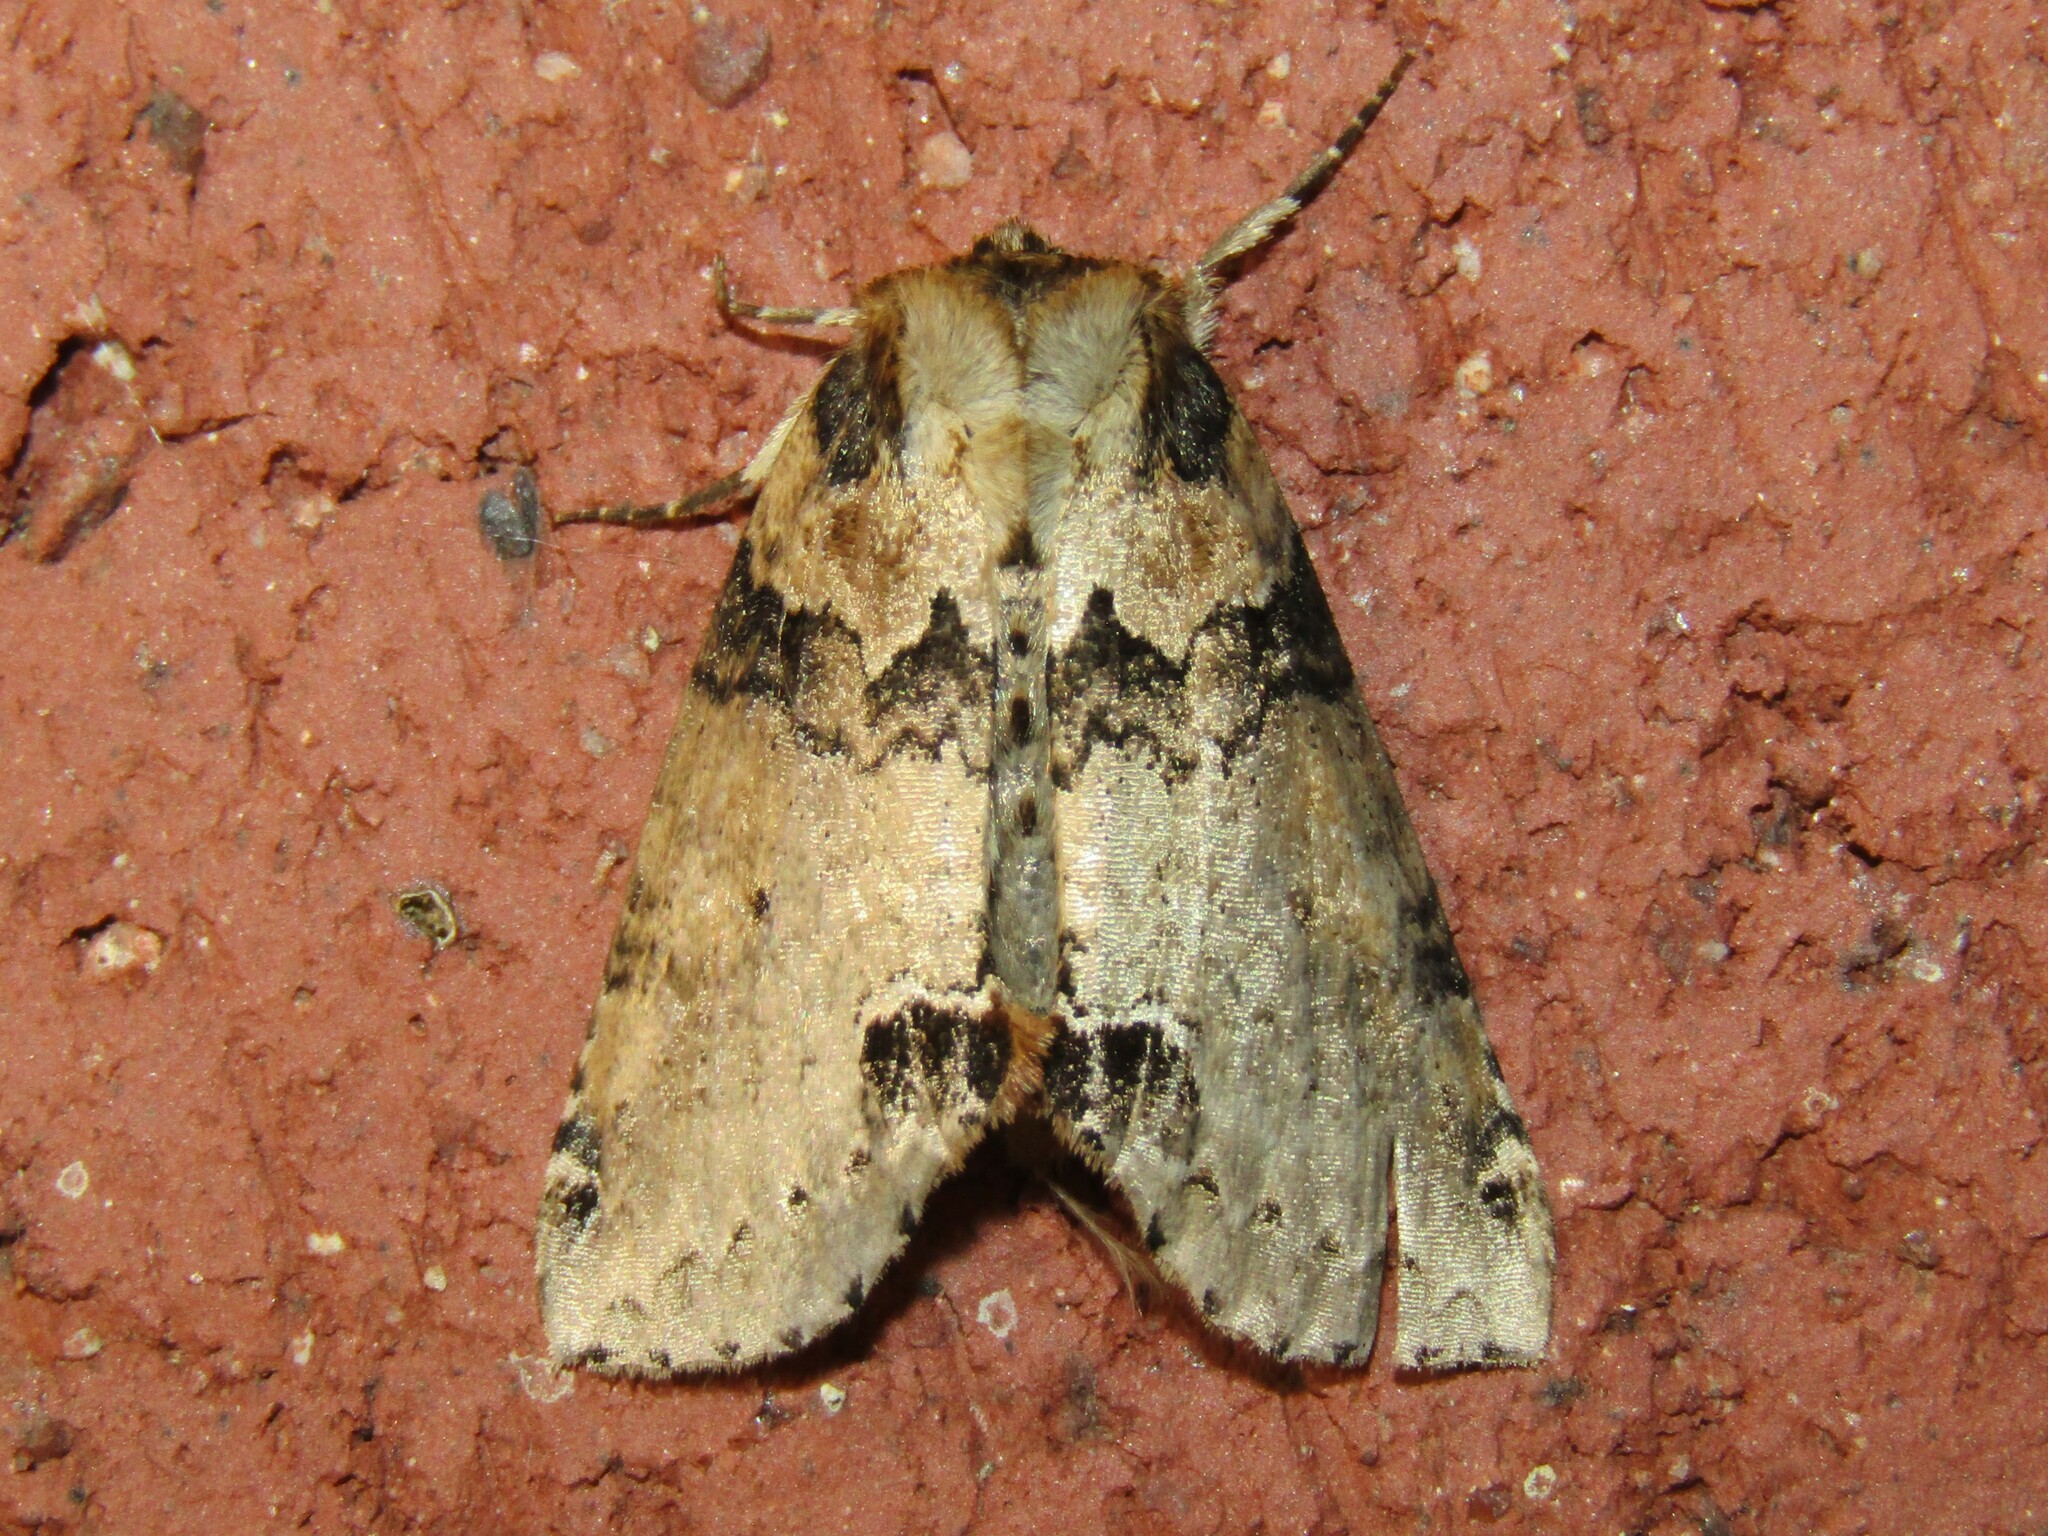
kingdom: Animalia
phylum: Arthropoda
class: Insecta
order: Lepidoptera
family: Drepanidae
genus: Pseudothyatira
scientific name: Pseudothyatira cymatophoroides
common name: Tufted thyatirid moth
